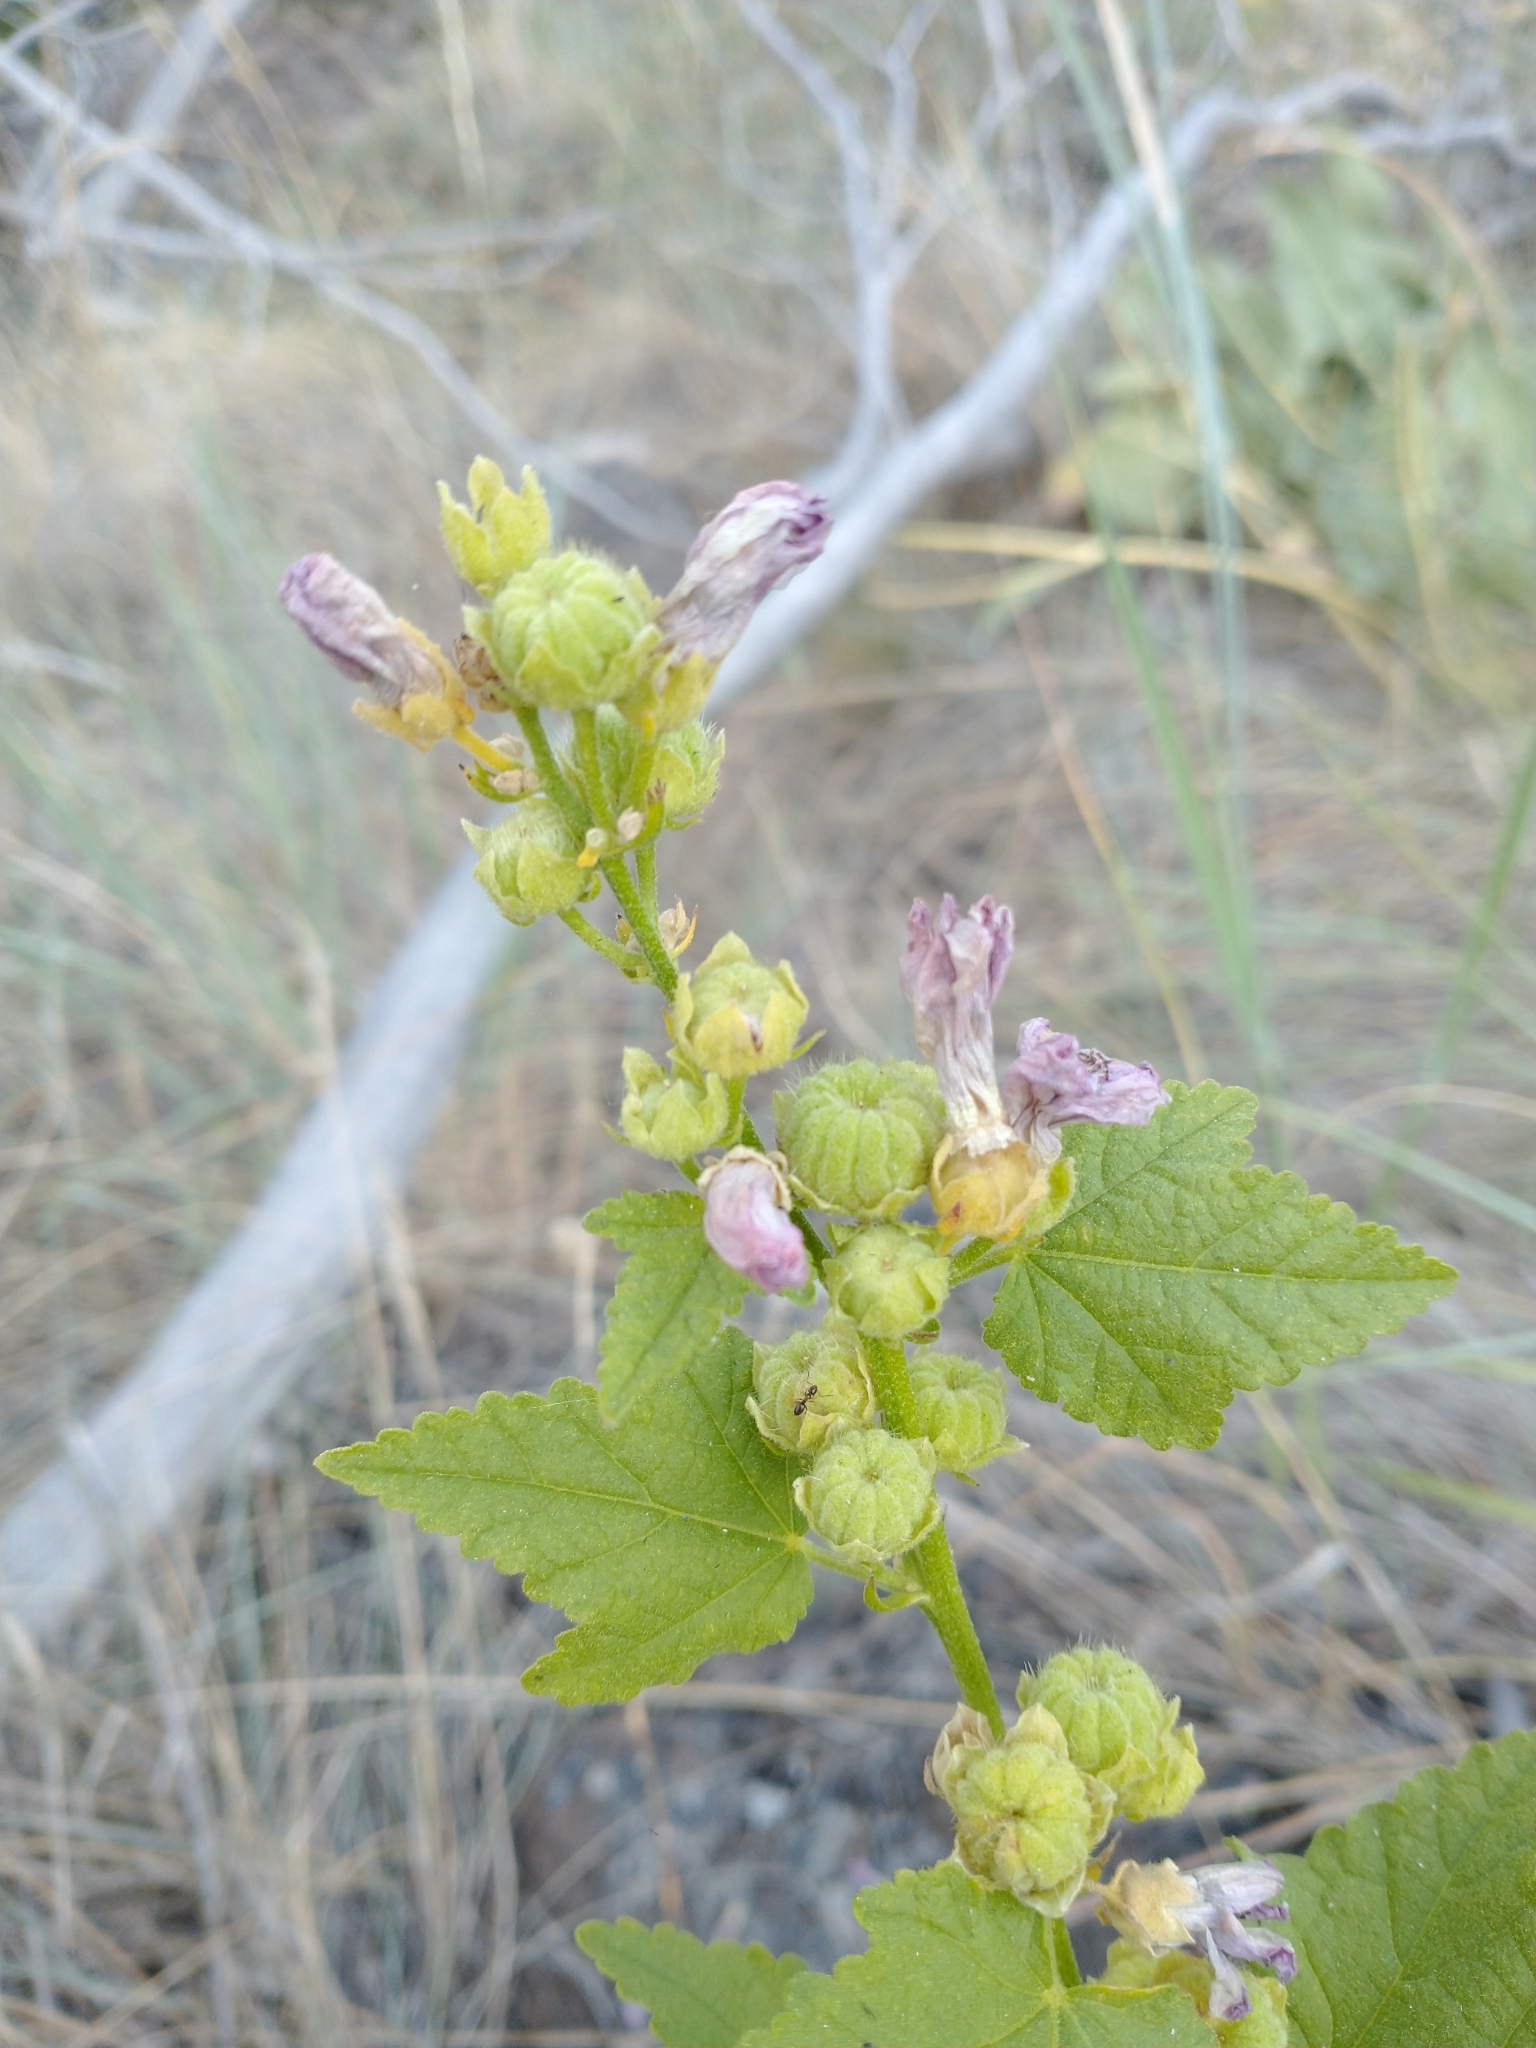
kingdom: Plantae
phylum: Tracheophyta
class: Magnoliopsida
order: Malvales
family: Malvaceae
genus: Iliamna
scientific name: Iliamna rivularis
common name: Wild hollyhock
